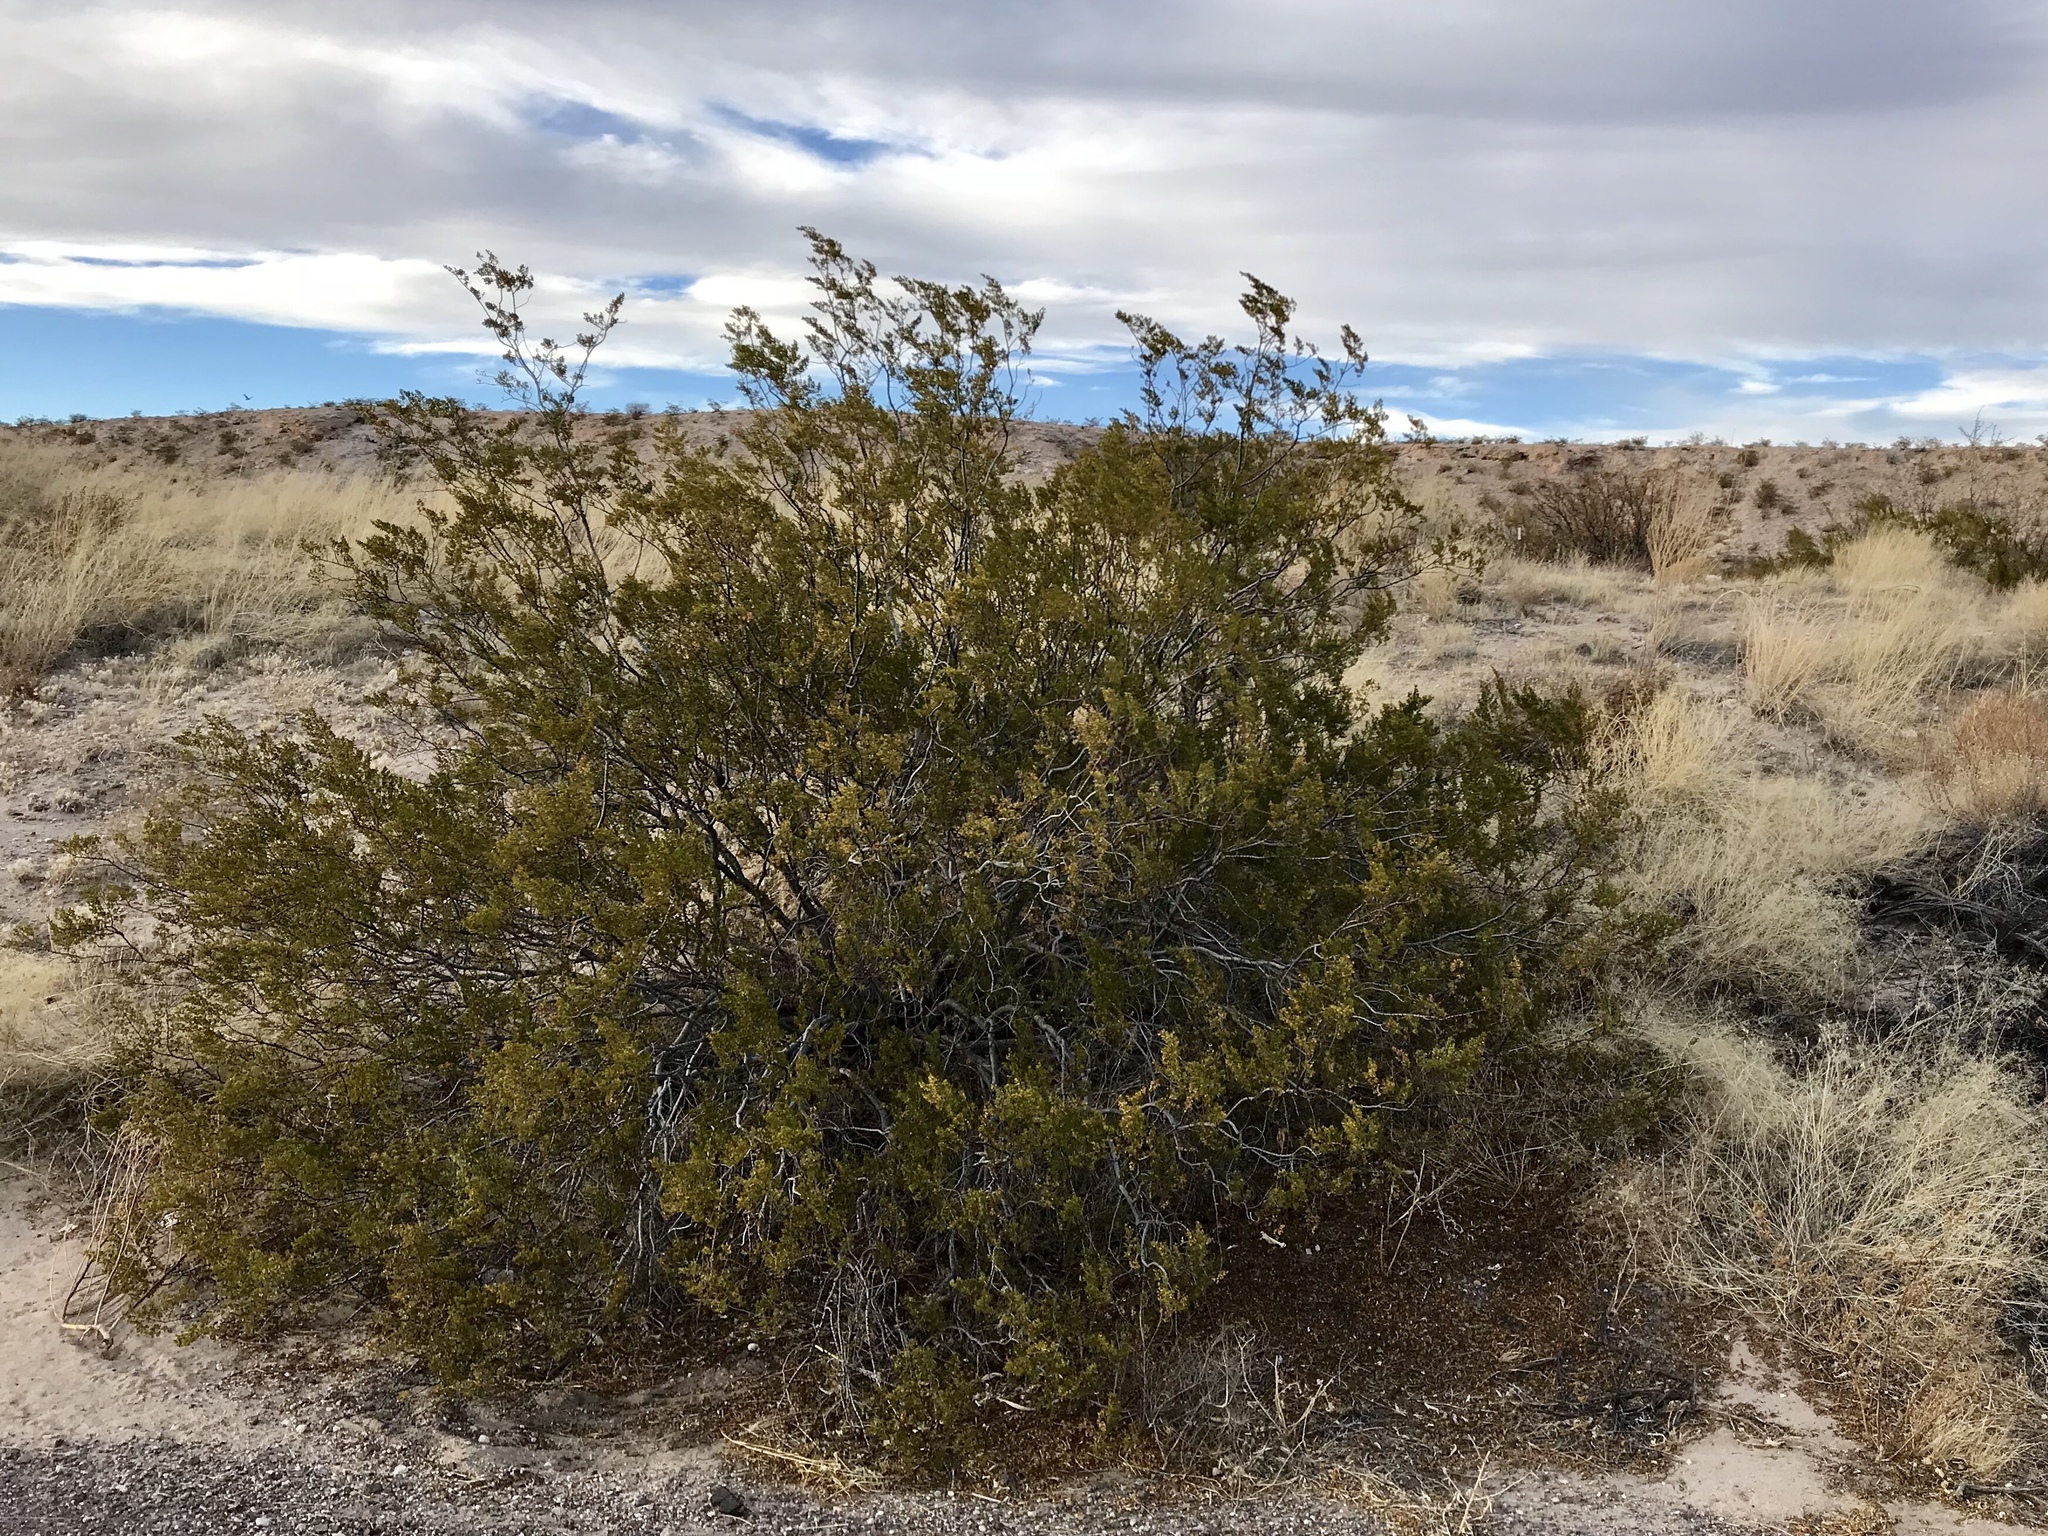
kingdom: Plantae
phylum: Tracheophyta
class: Magnoliopsida
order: Zygophyllales
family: Zygophyllaceae
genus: Larrea
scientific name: Larrea tridentata
